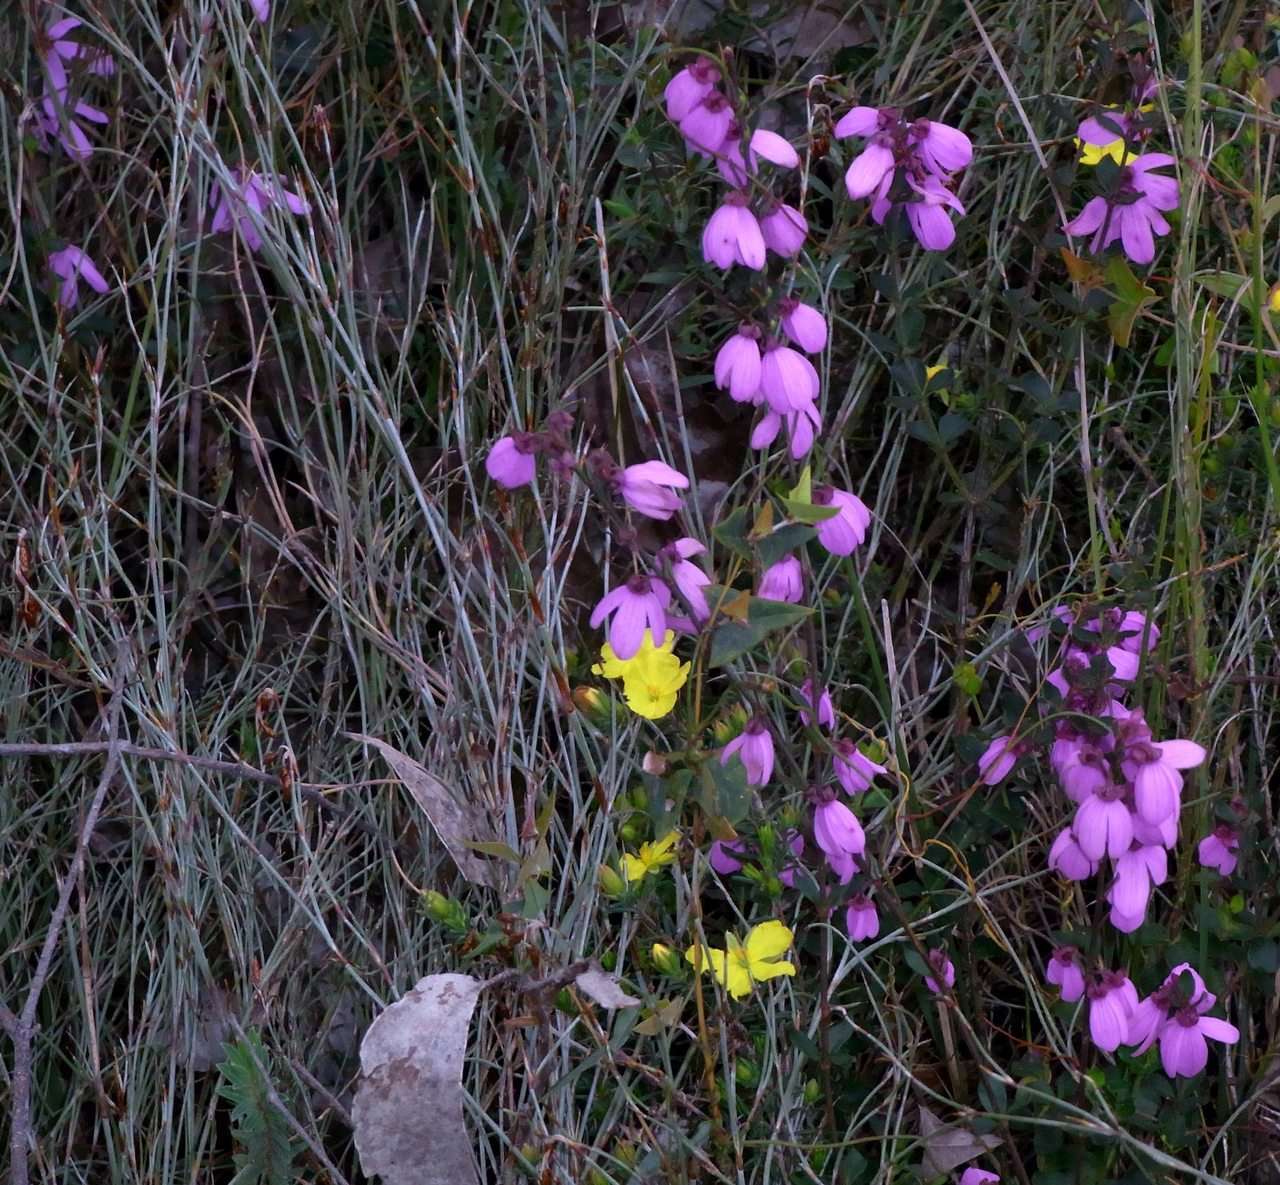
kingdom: Plantae
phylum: Tracheophyta
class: Magnoliopsida
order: Oxalidales
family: Elaeocarpaceae
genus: Tetratheca
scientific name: Tetratheca ciliata
